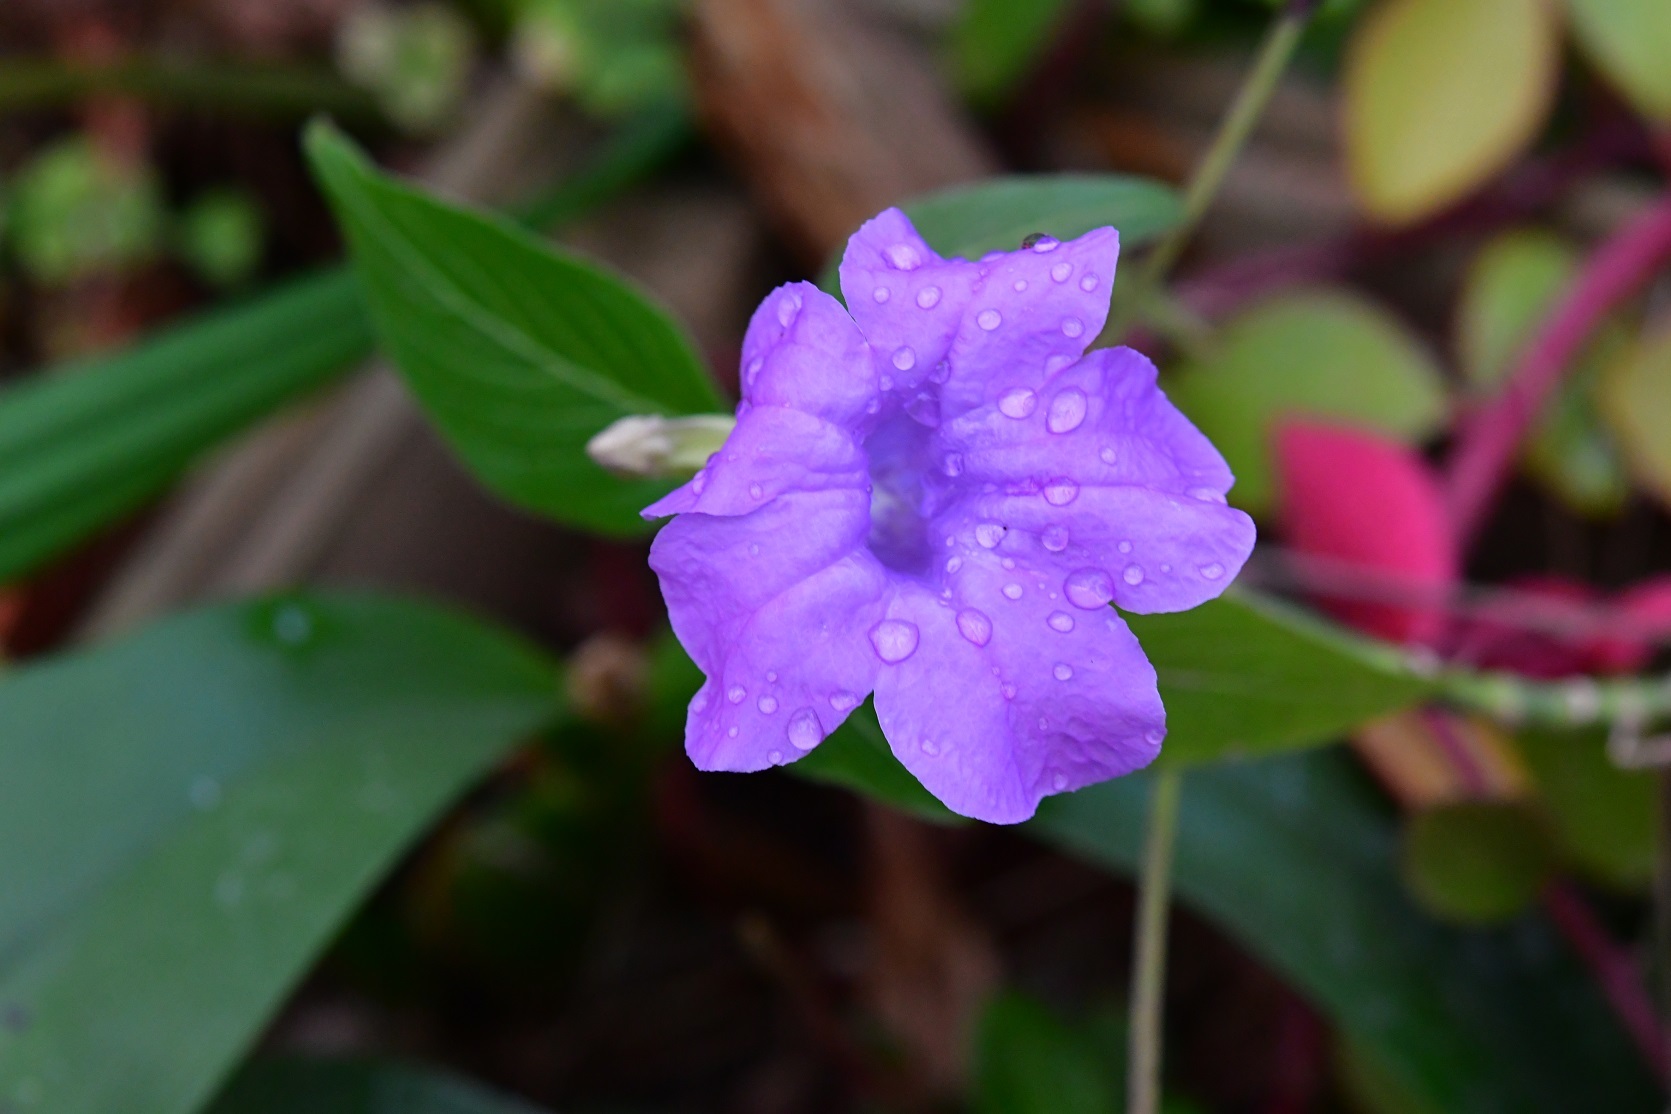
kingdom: Plantae
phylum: Tracheophyta
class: Magnoliopsida
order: Lamiales
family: Acanthaceae
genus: Ruellia
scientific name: Ruellia breedlovei
